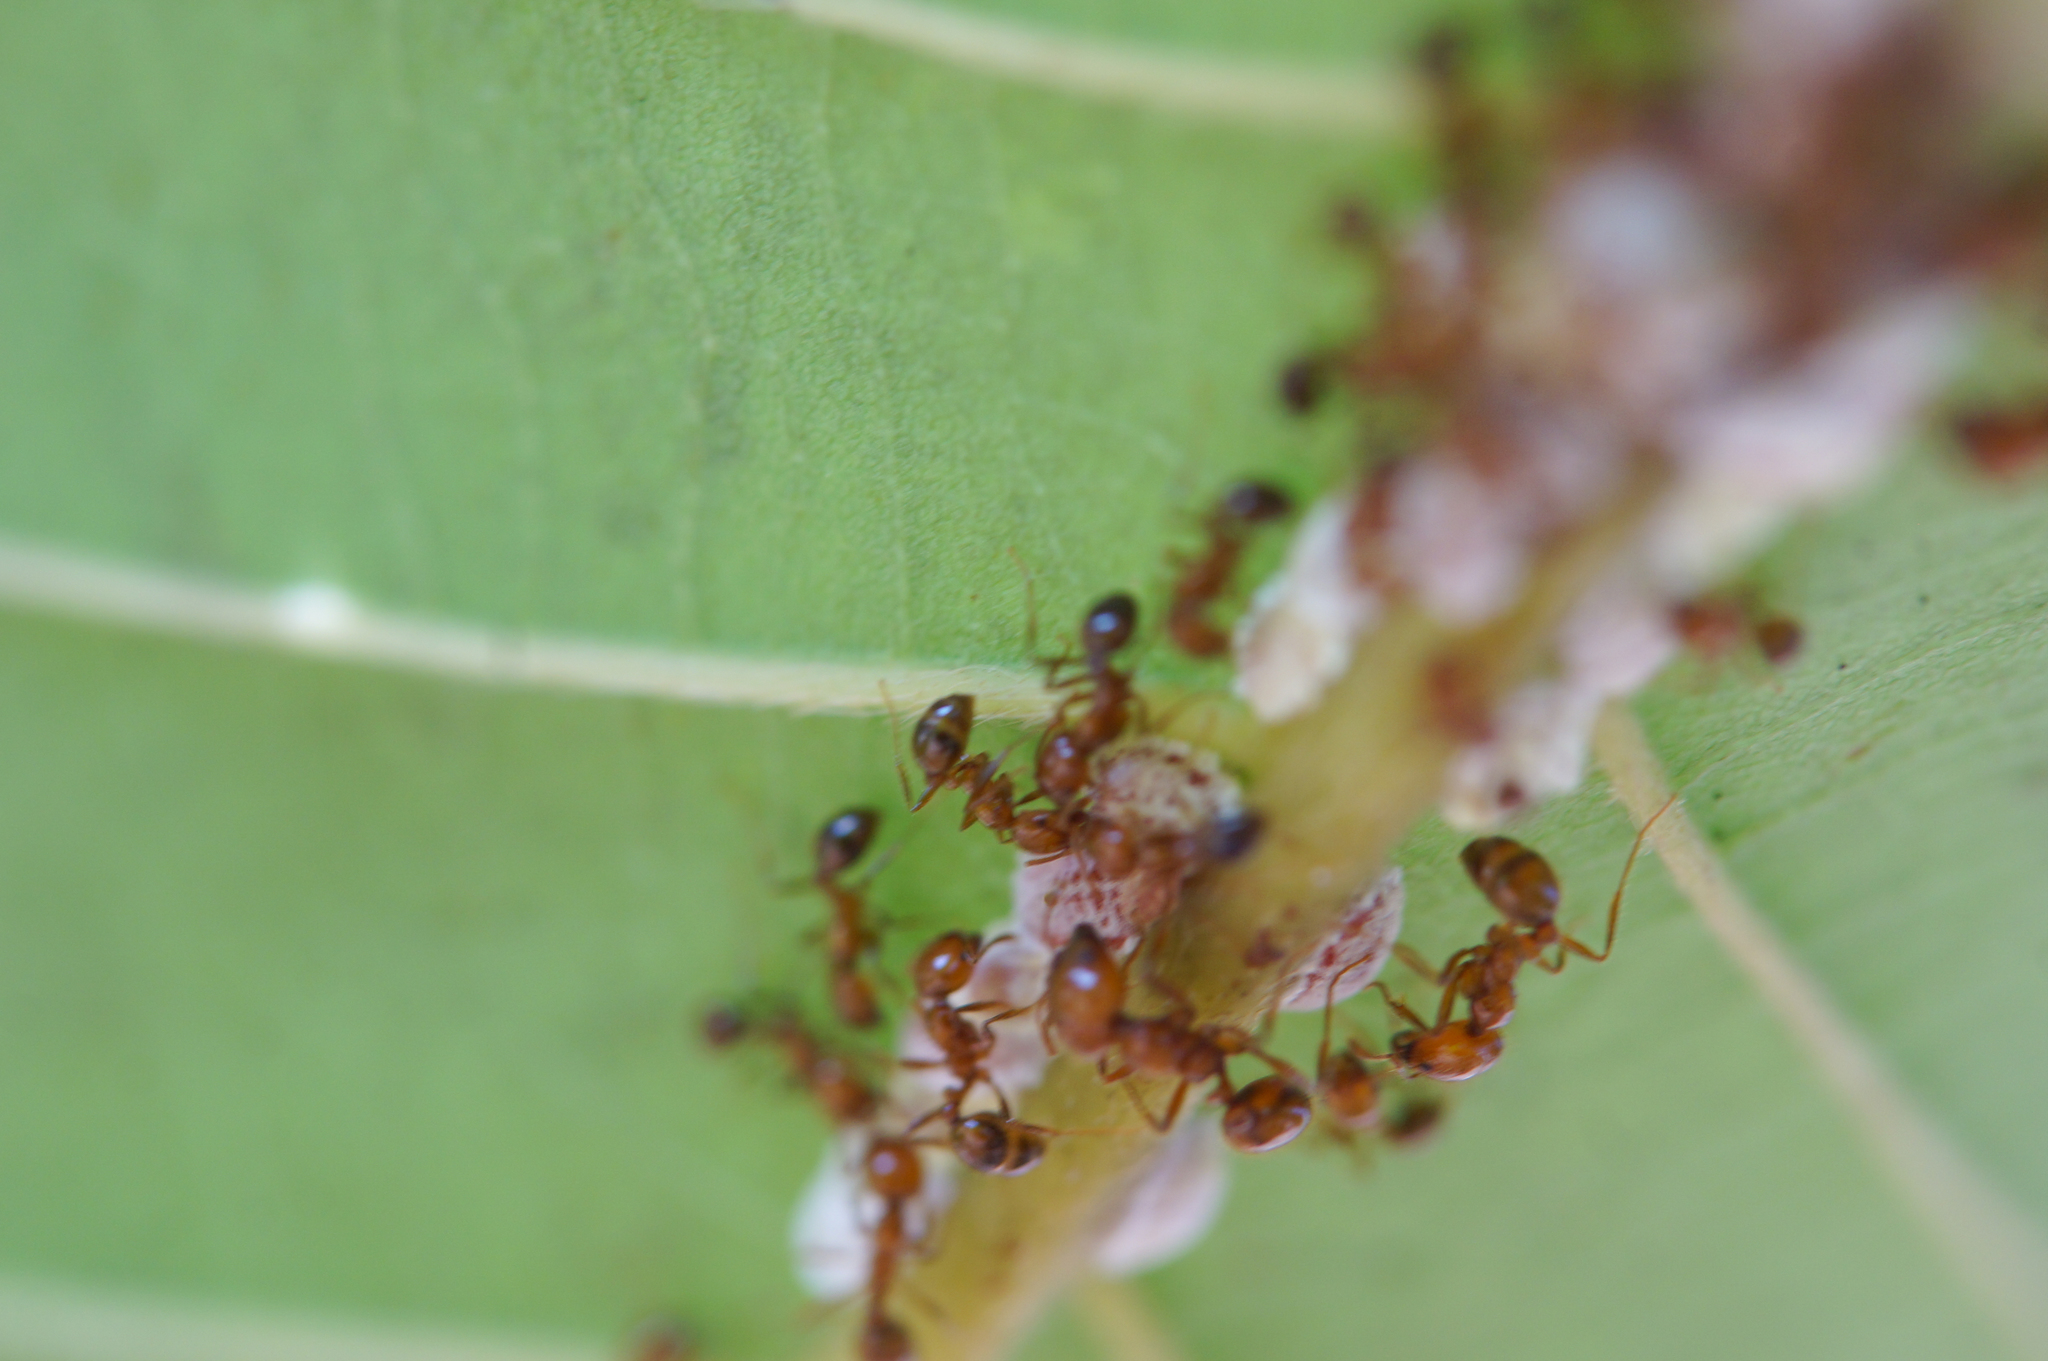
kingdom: Animalia
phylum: Arthropoda
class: Insecta
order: Hymenoptera
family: Formicidae
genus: Solenopsis
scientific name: Solenopsis geminata
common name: Tropical fire ant
